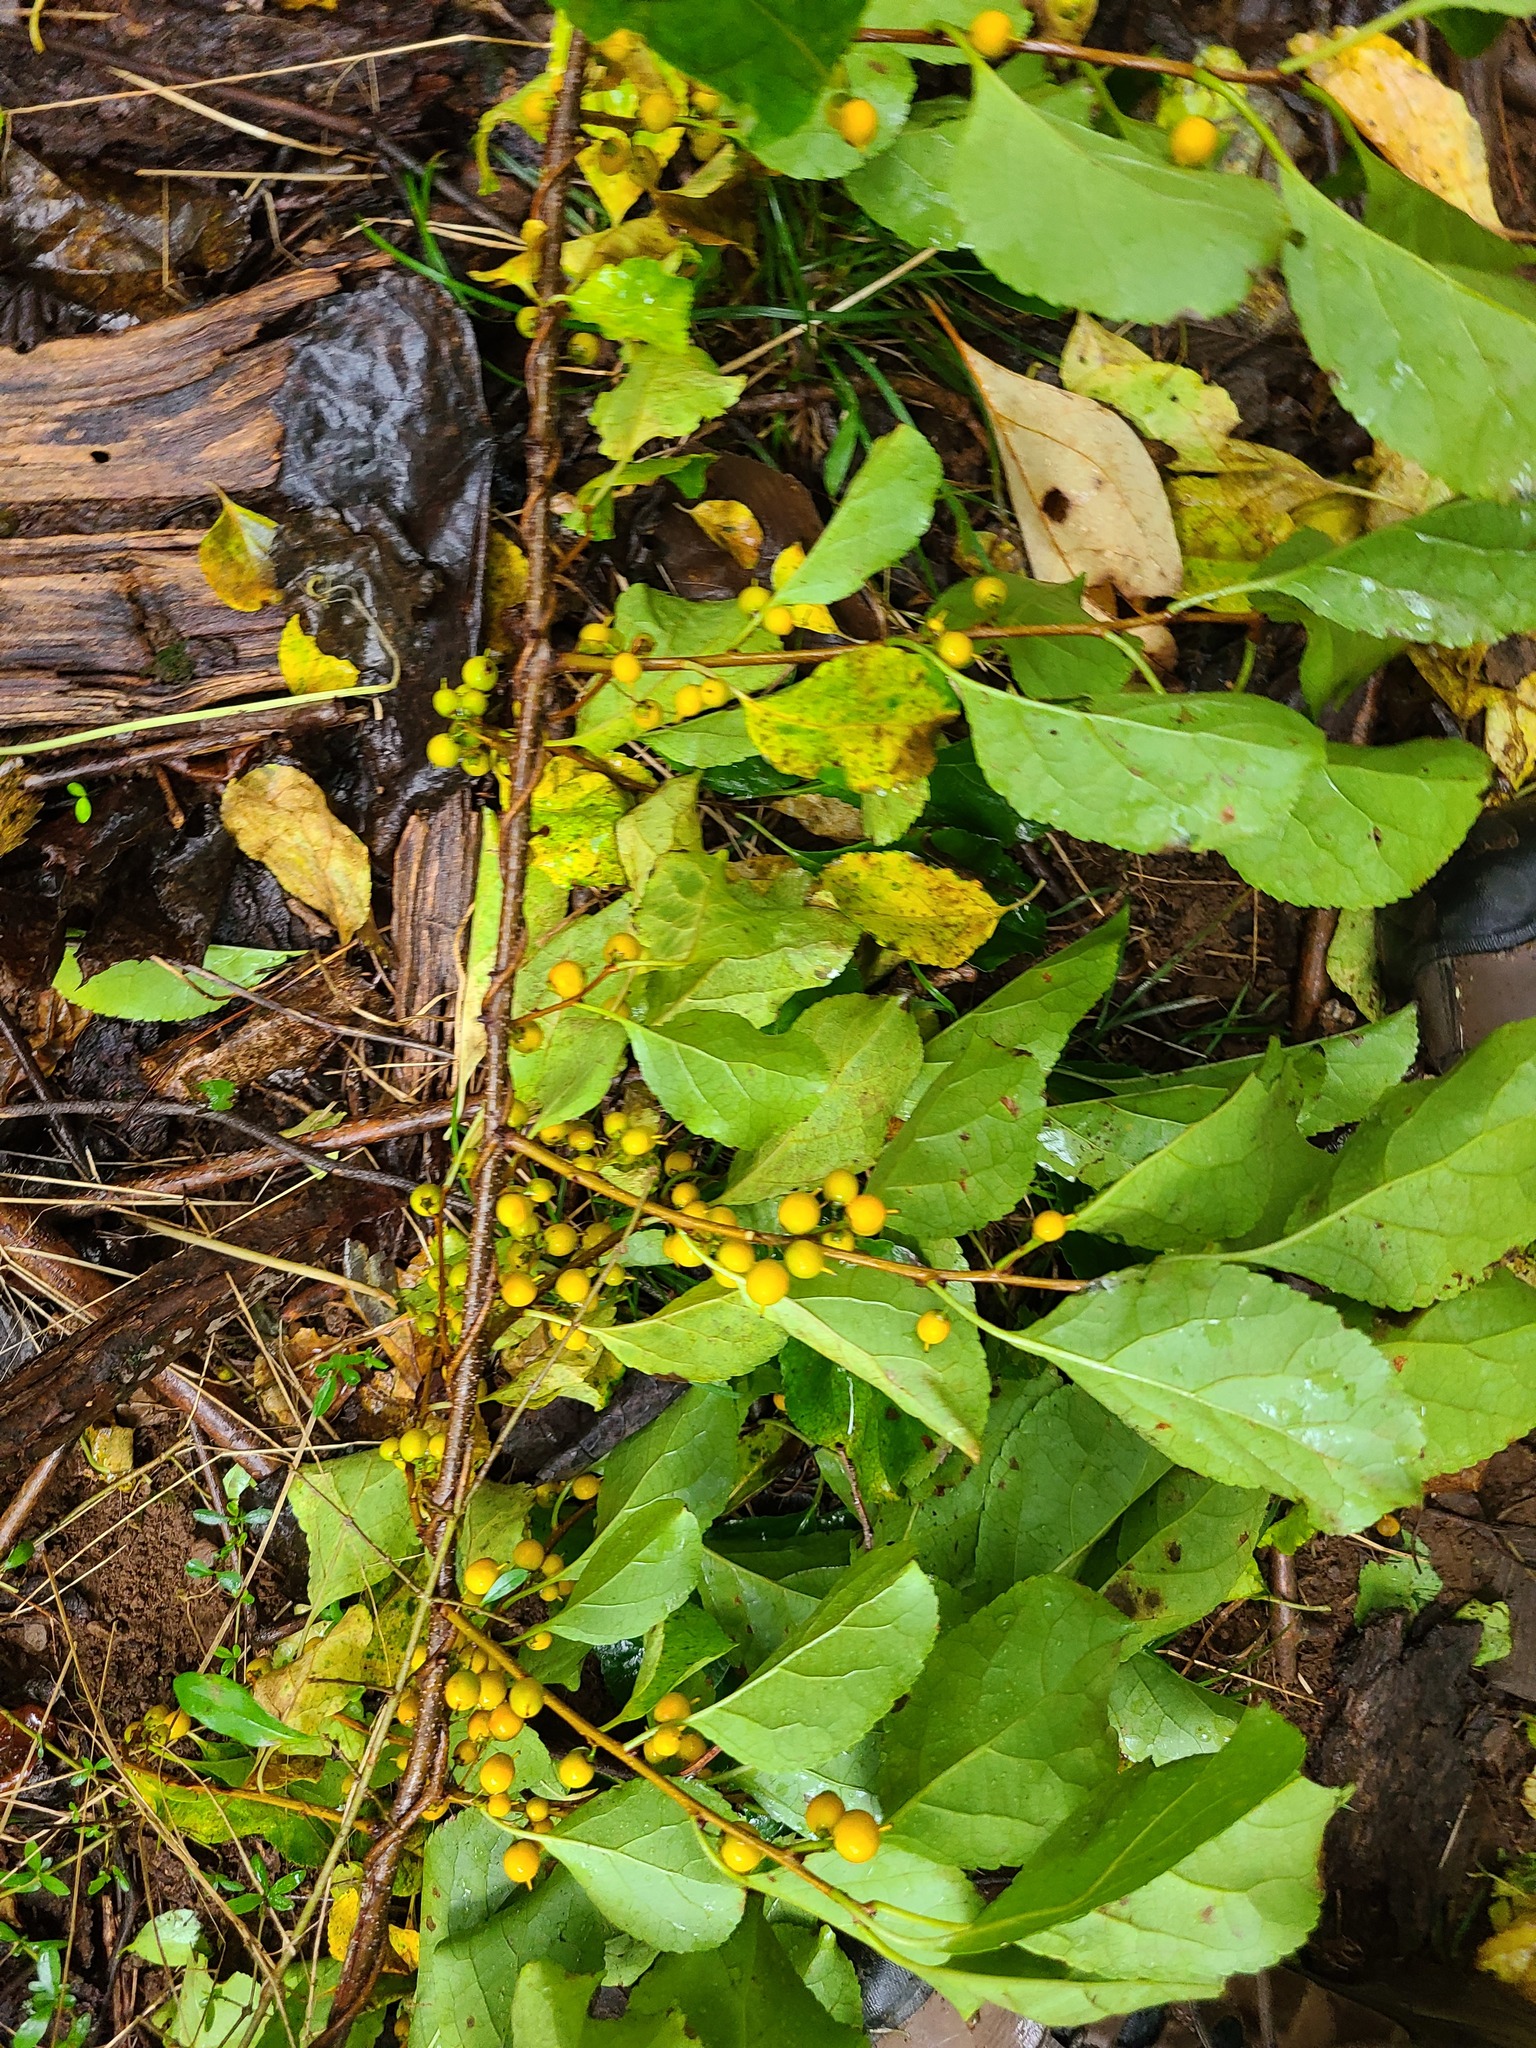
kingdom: Plantae
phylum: Tracheophyta
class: Magnoliopsida
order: Celastrales
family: Celastraceae
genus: Celastrus
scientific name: Celastrus orbiculatus
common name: Oriental bittersweet
